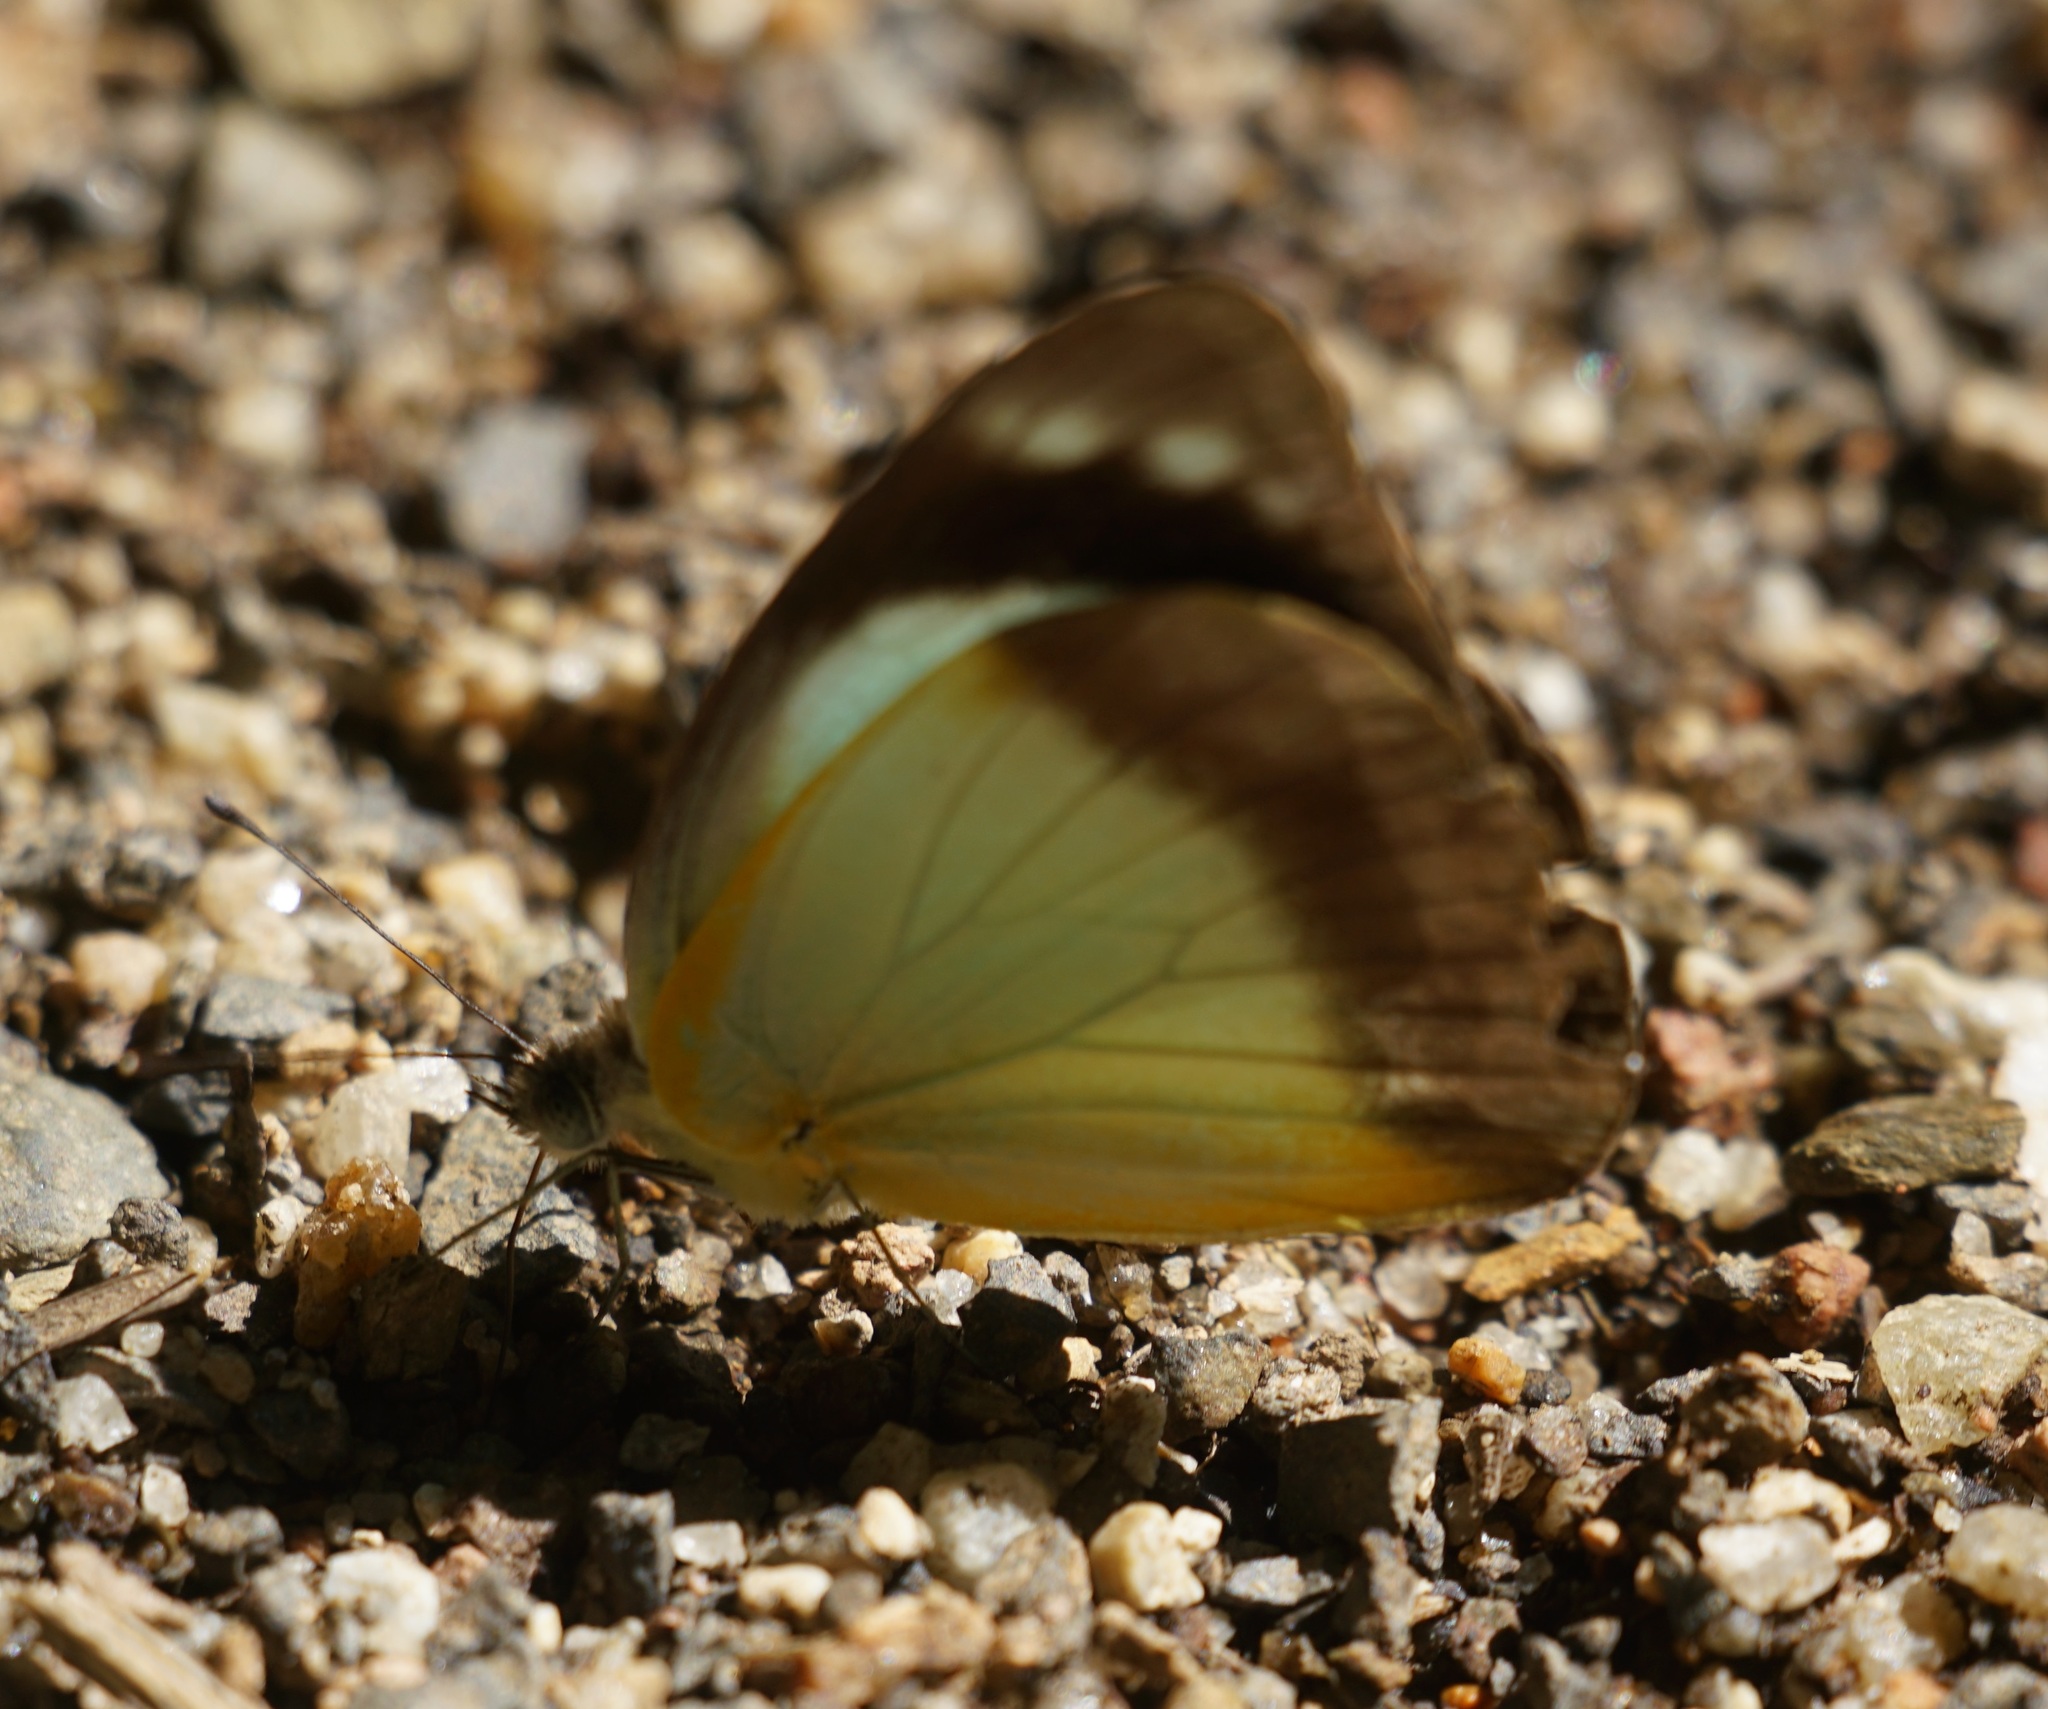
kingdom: Animalia
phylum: Arthropoda
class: Insecta
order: Lepidoptera
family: Pieridae
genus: Appias
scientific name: Appias paulina
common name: Ceylon lesser albatross
